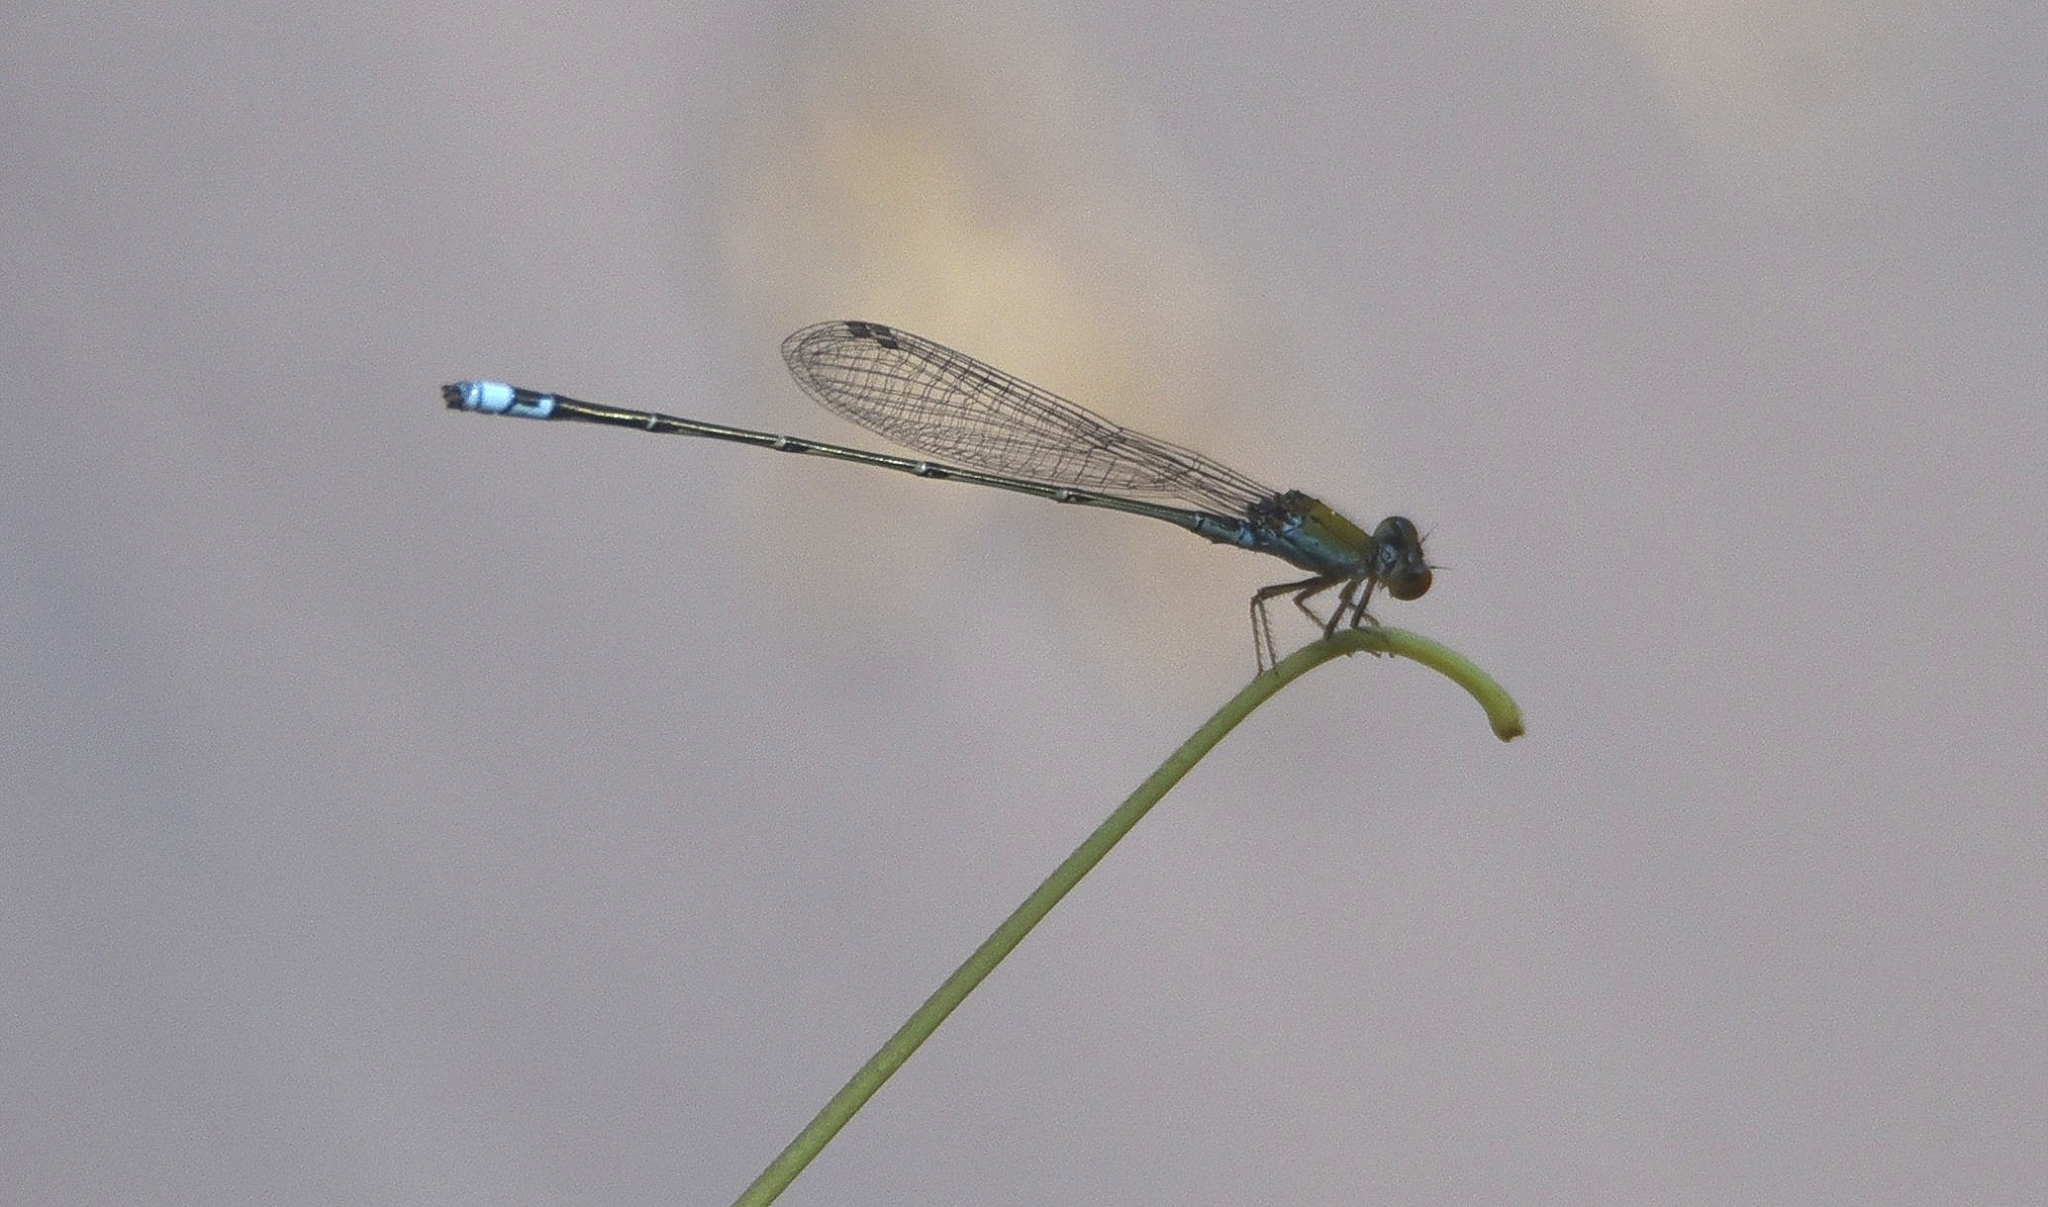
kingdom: Animalia
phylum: Arthropoda
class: Insecta
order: Odonata
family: Coenagrionidae
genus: Pseudagrion
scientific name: Pseudagrion rubriceps
